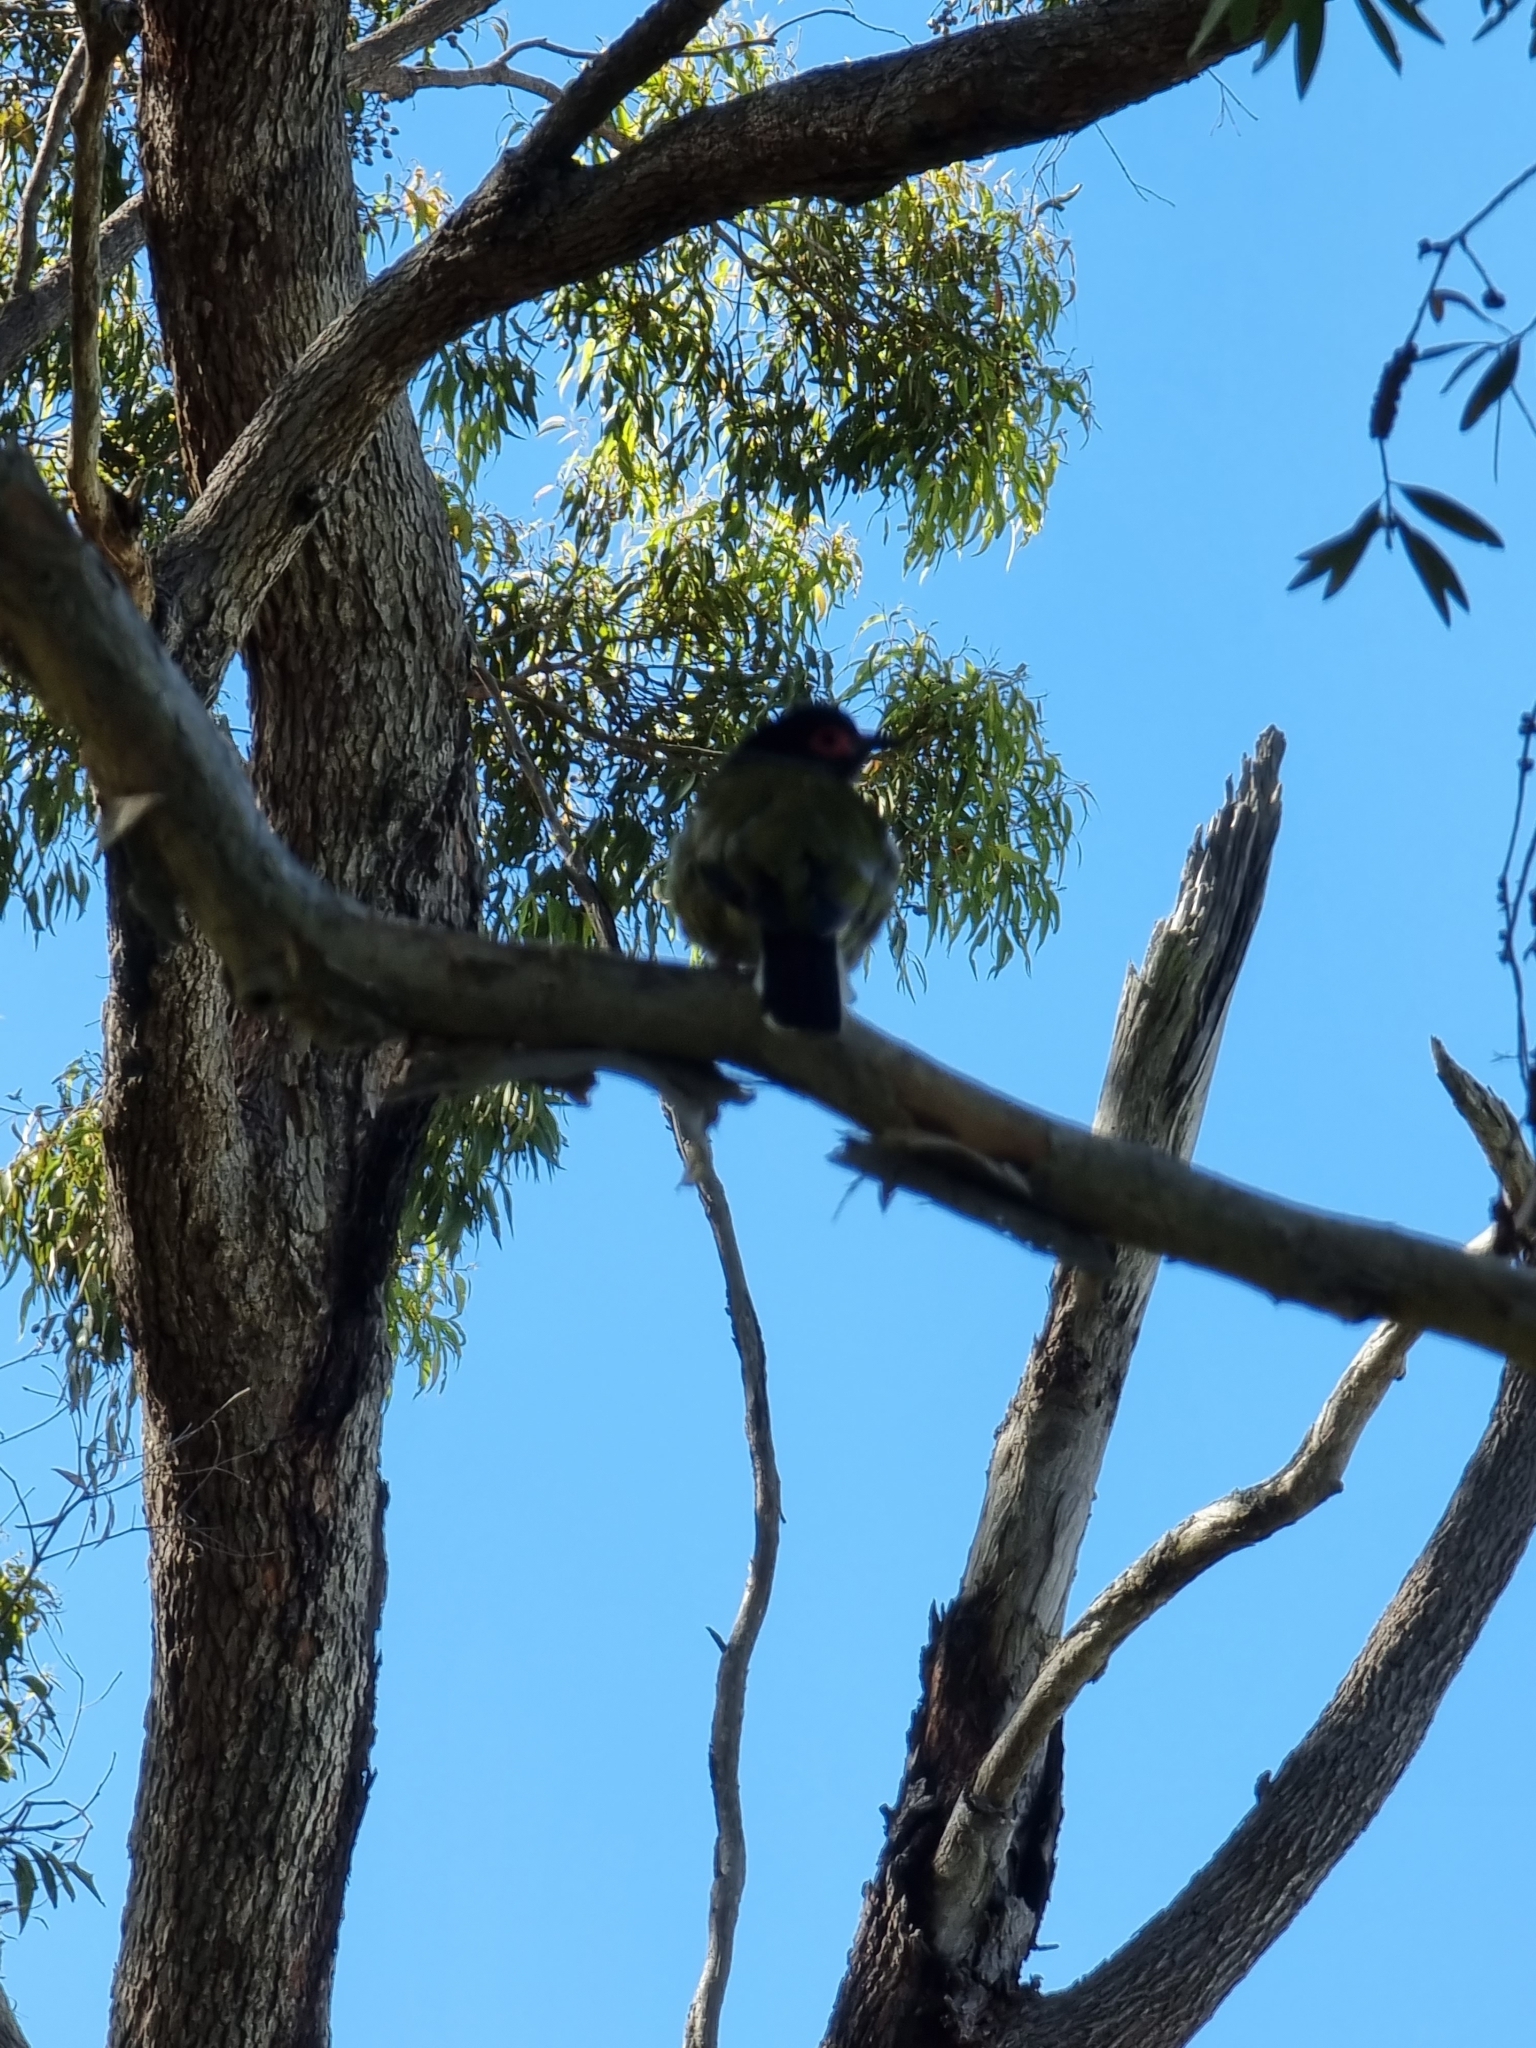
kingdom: Animalia
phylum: Chordata
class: Aves
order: Passeriformes
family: Oriolidae
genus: Sphecotheres
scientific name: Sphecotheres vieilloti
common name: Australasian figbird
